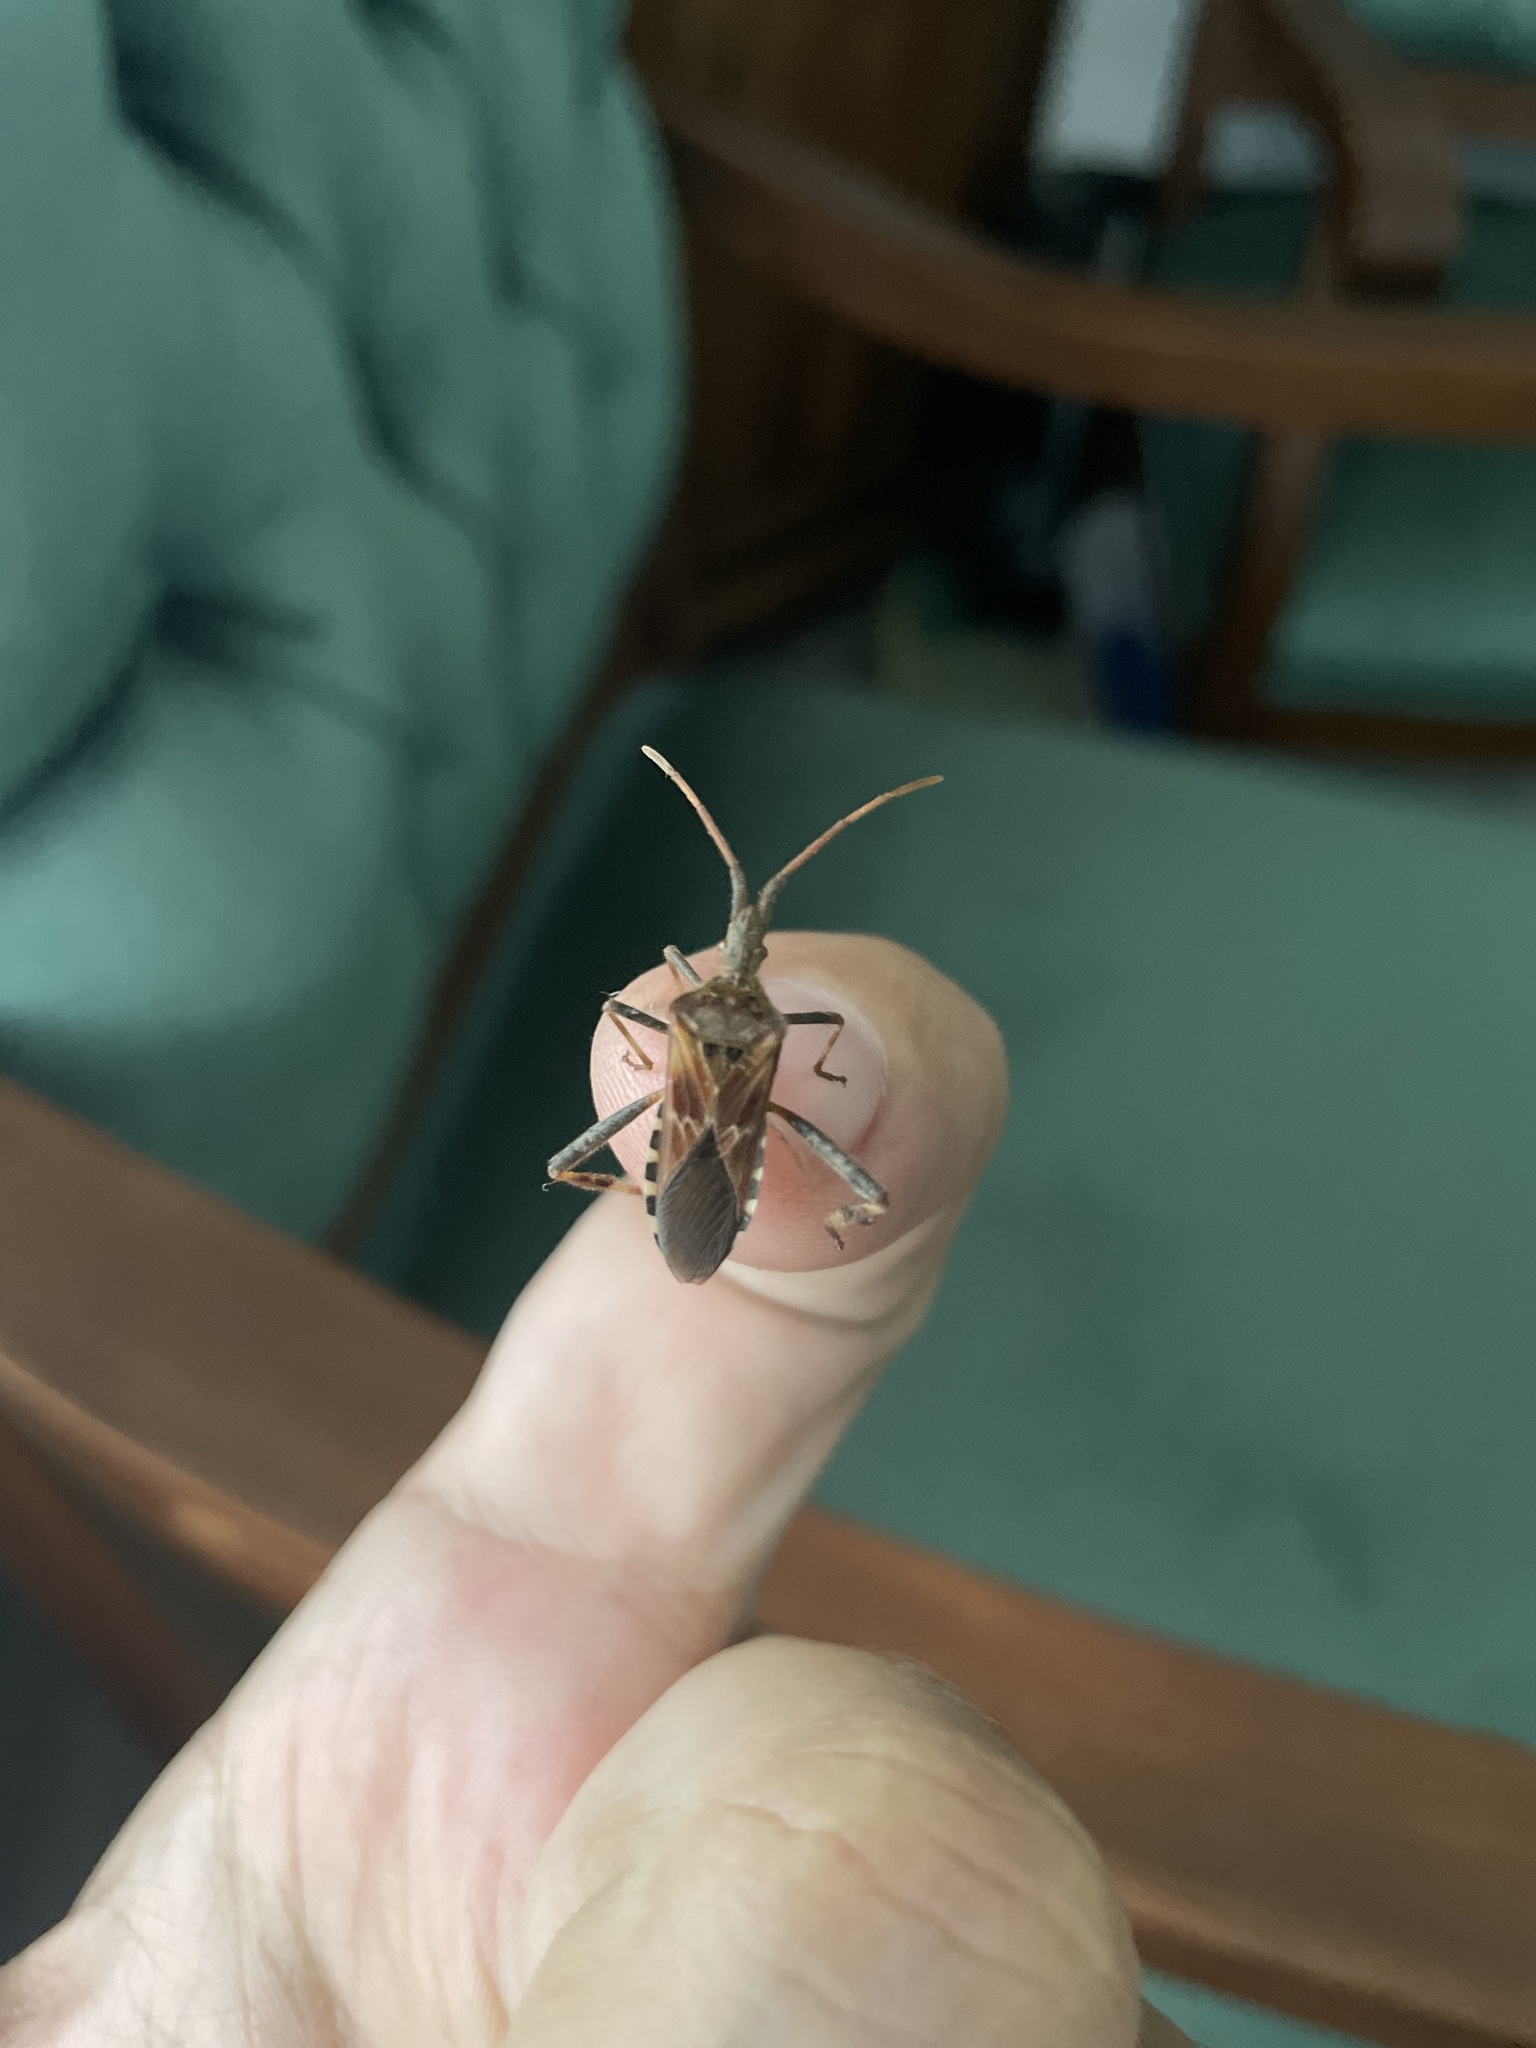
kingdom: Animalia
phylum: Arthropoda
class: Insecta
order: Hemiptera
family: Coreidae
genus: Leptoglossus
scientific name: Leptoglossus occidentalis
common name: Western conifer-seed bug
